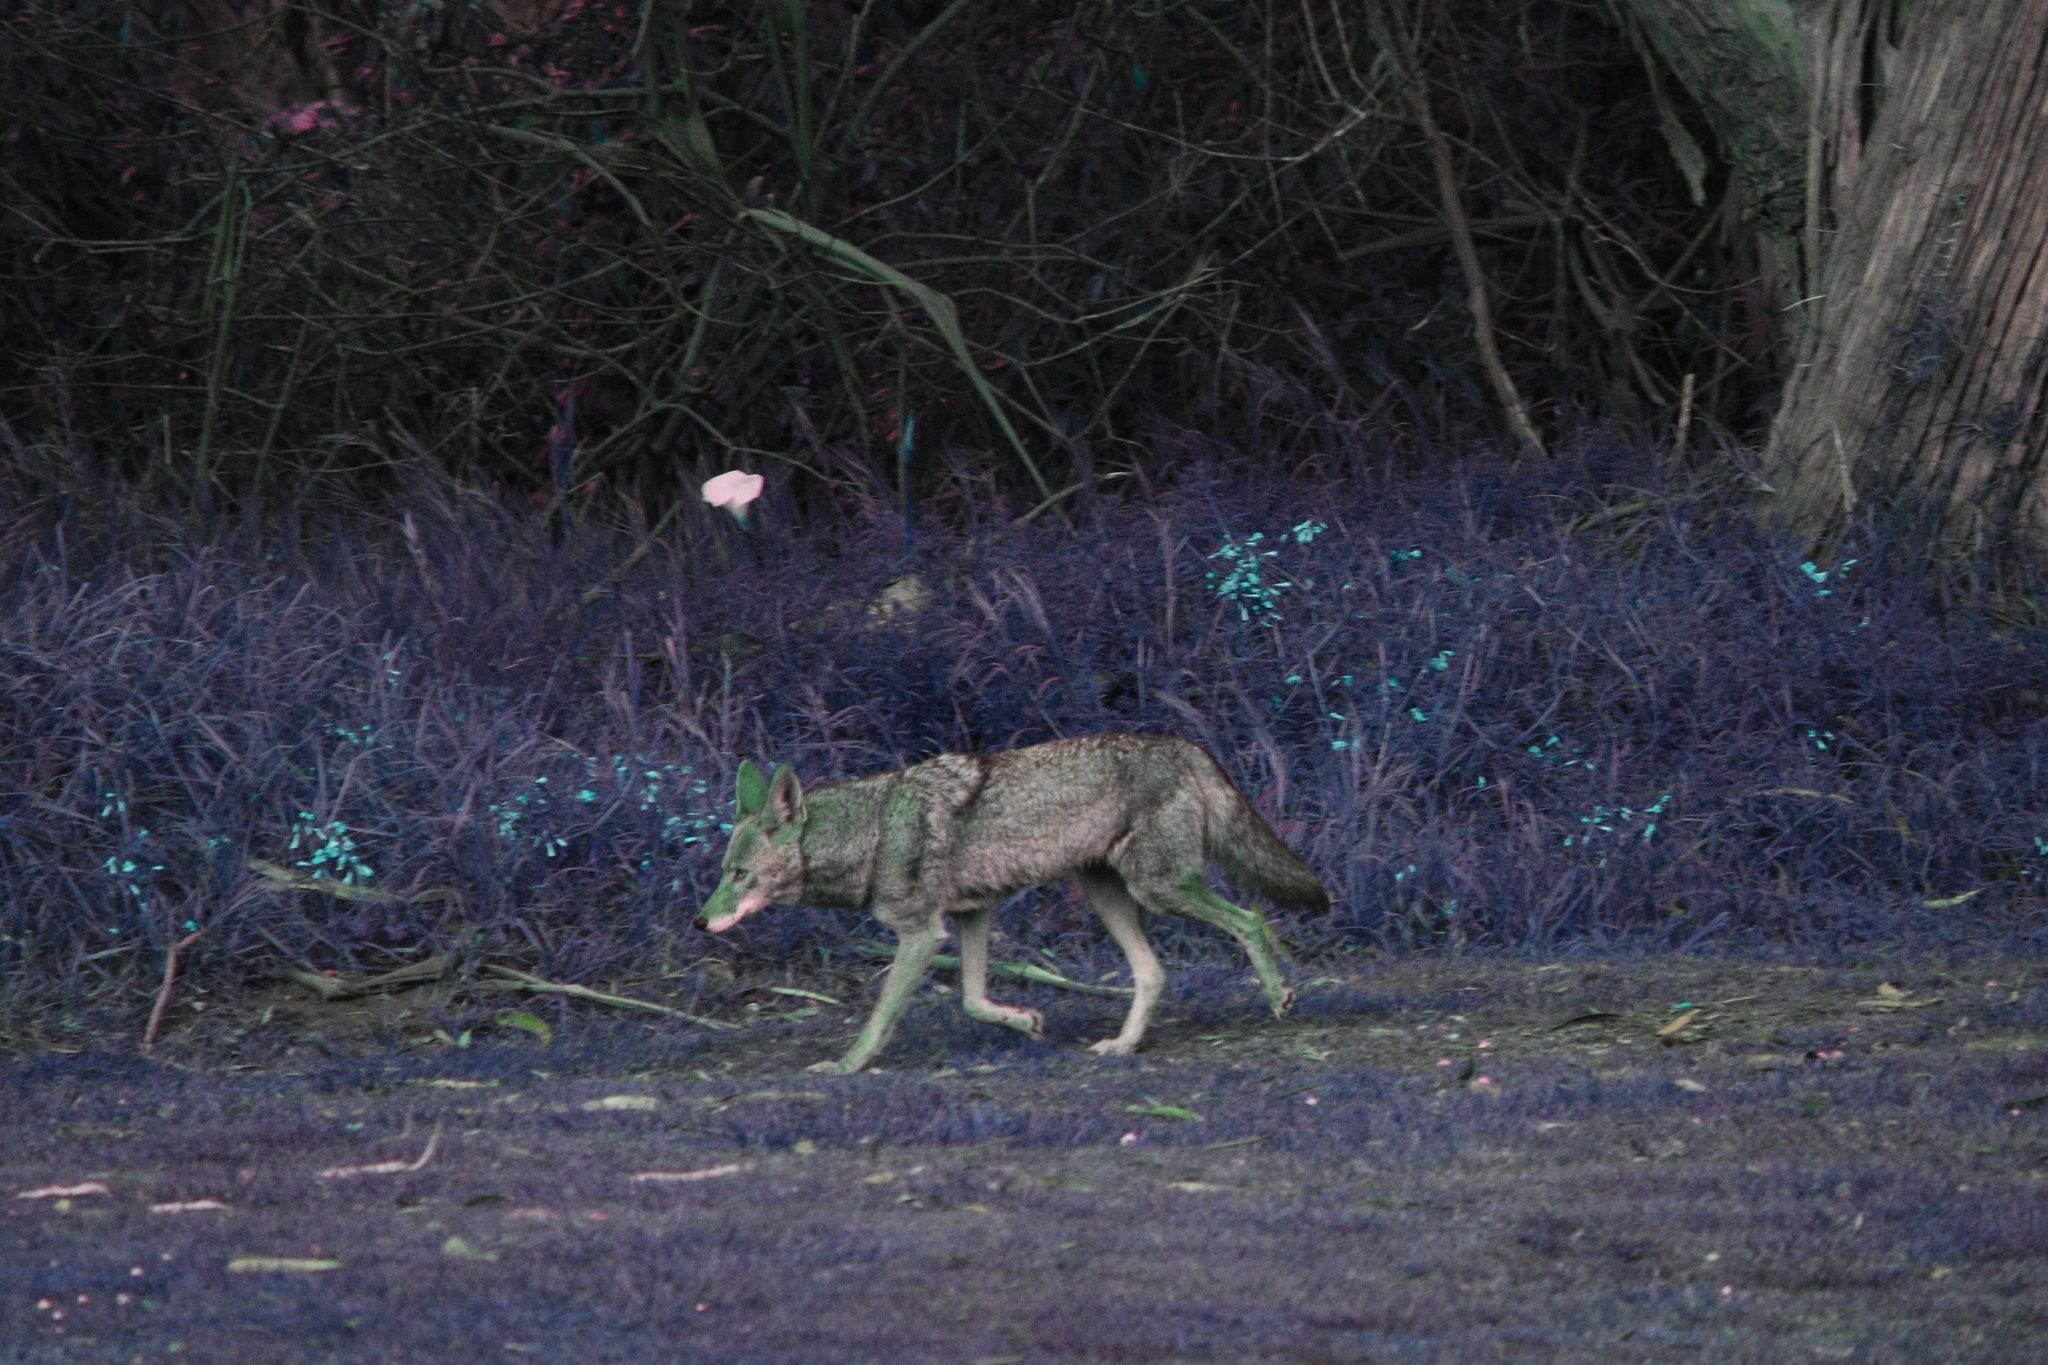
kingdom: Animalia
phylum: Chordata
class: Mammalia
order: Carnivora
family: Canidae
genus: Canis
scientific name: Canis latrans
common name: Coyote
